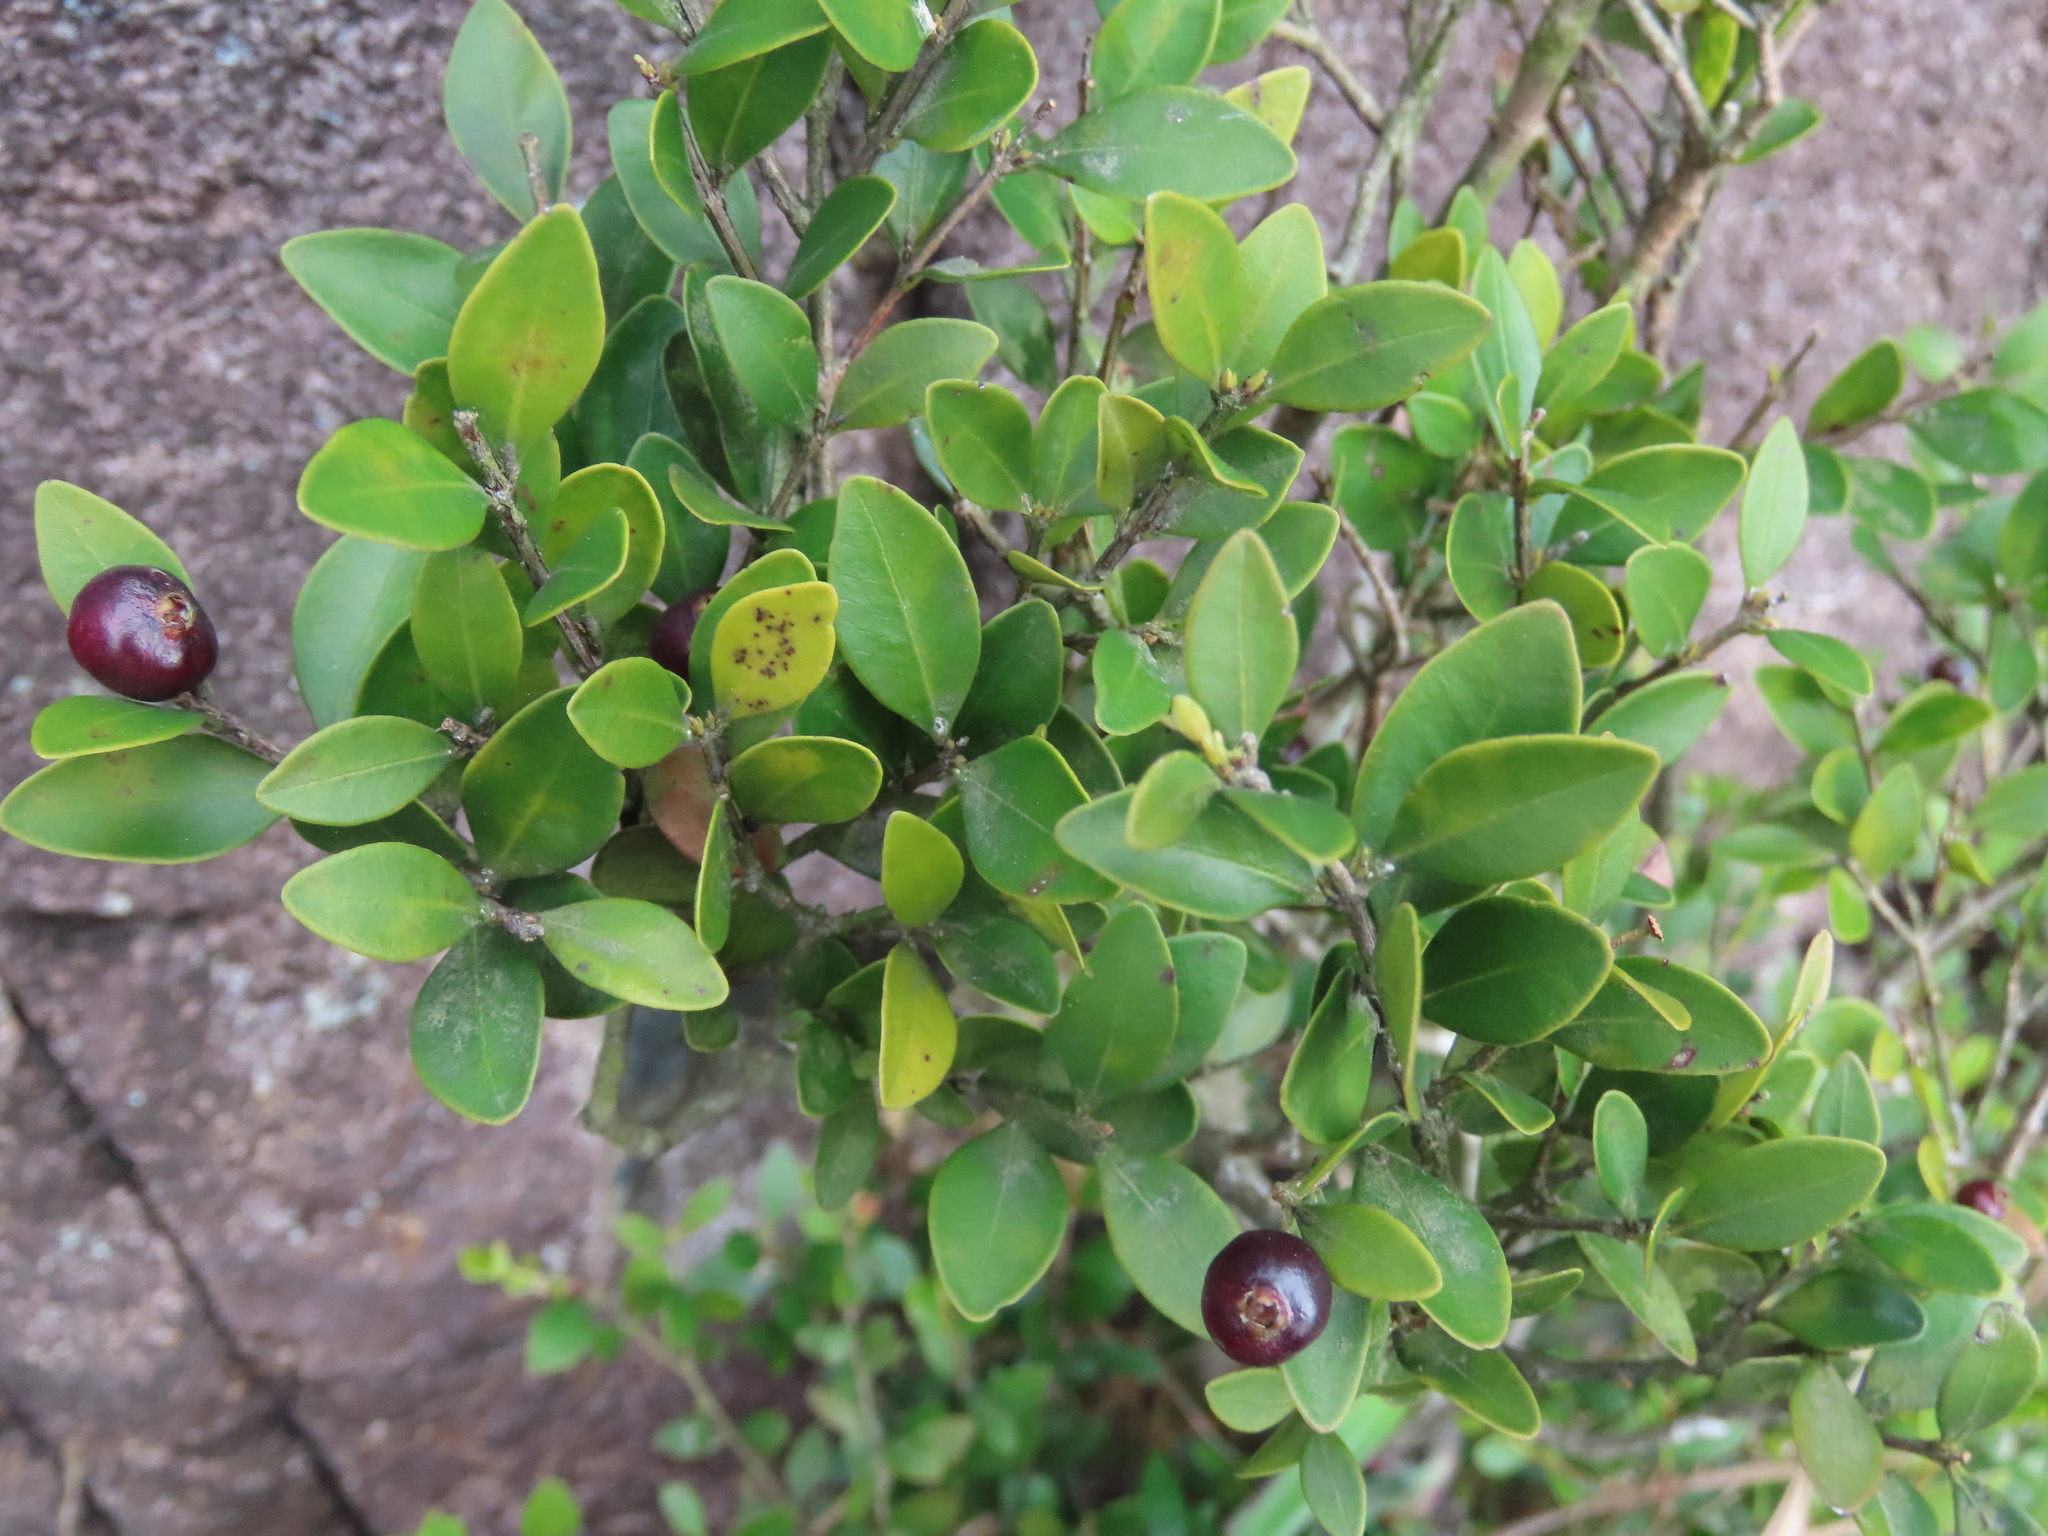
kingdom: Plantae
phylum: Tracheophyta
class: Magnoliopsida
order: Myrtales
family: Myrtaceae
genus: Syzygium
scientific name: Syzygium buxifolium
